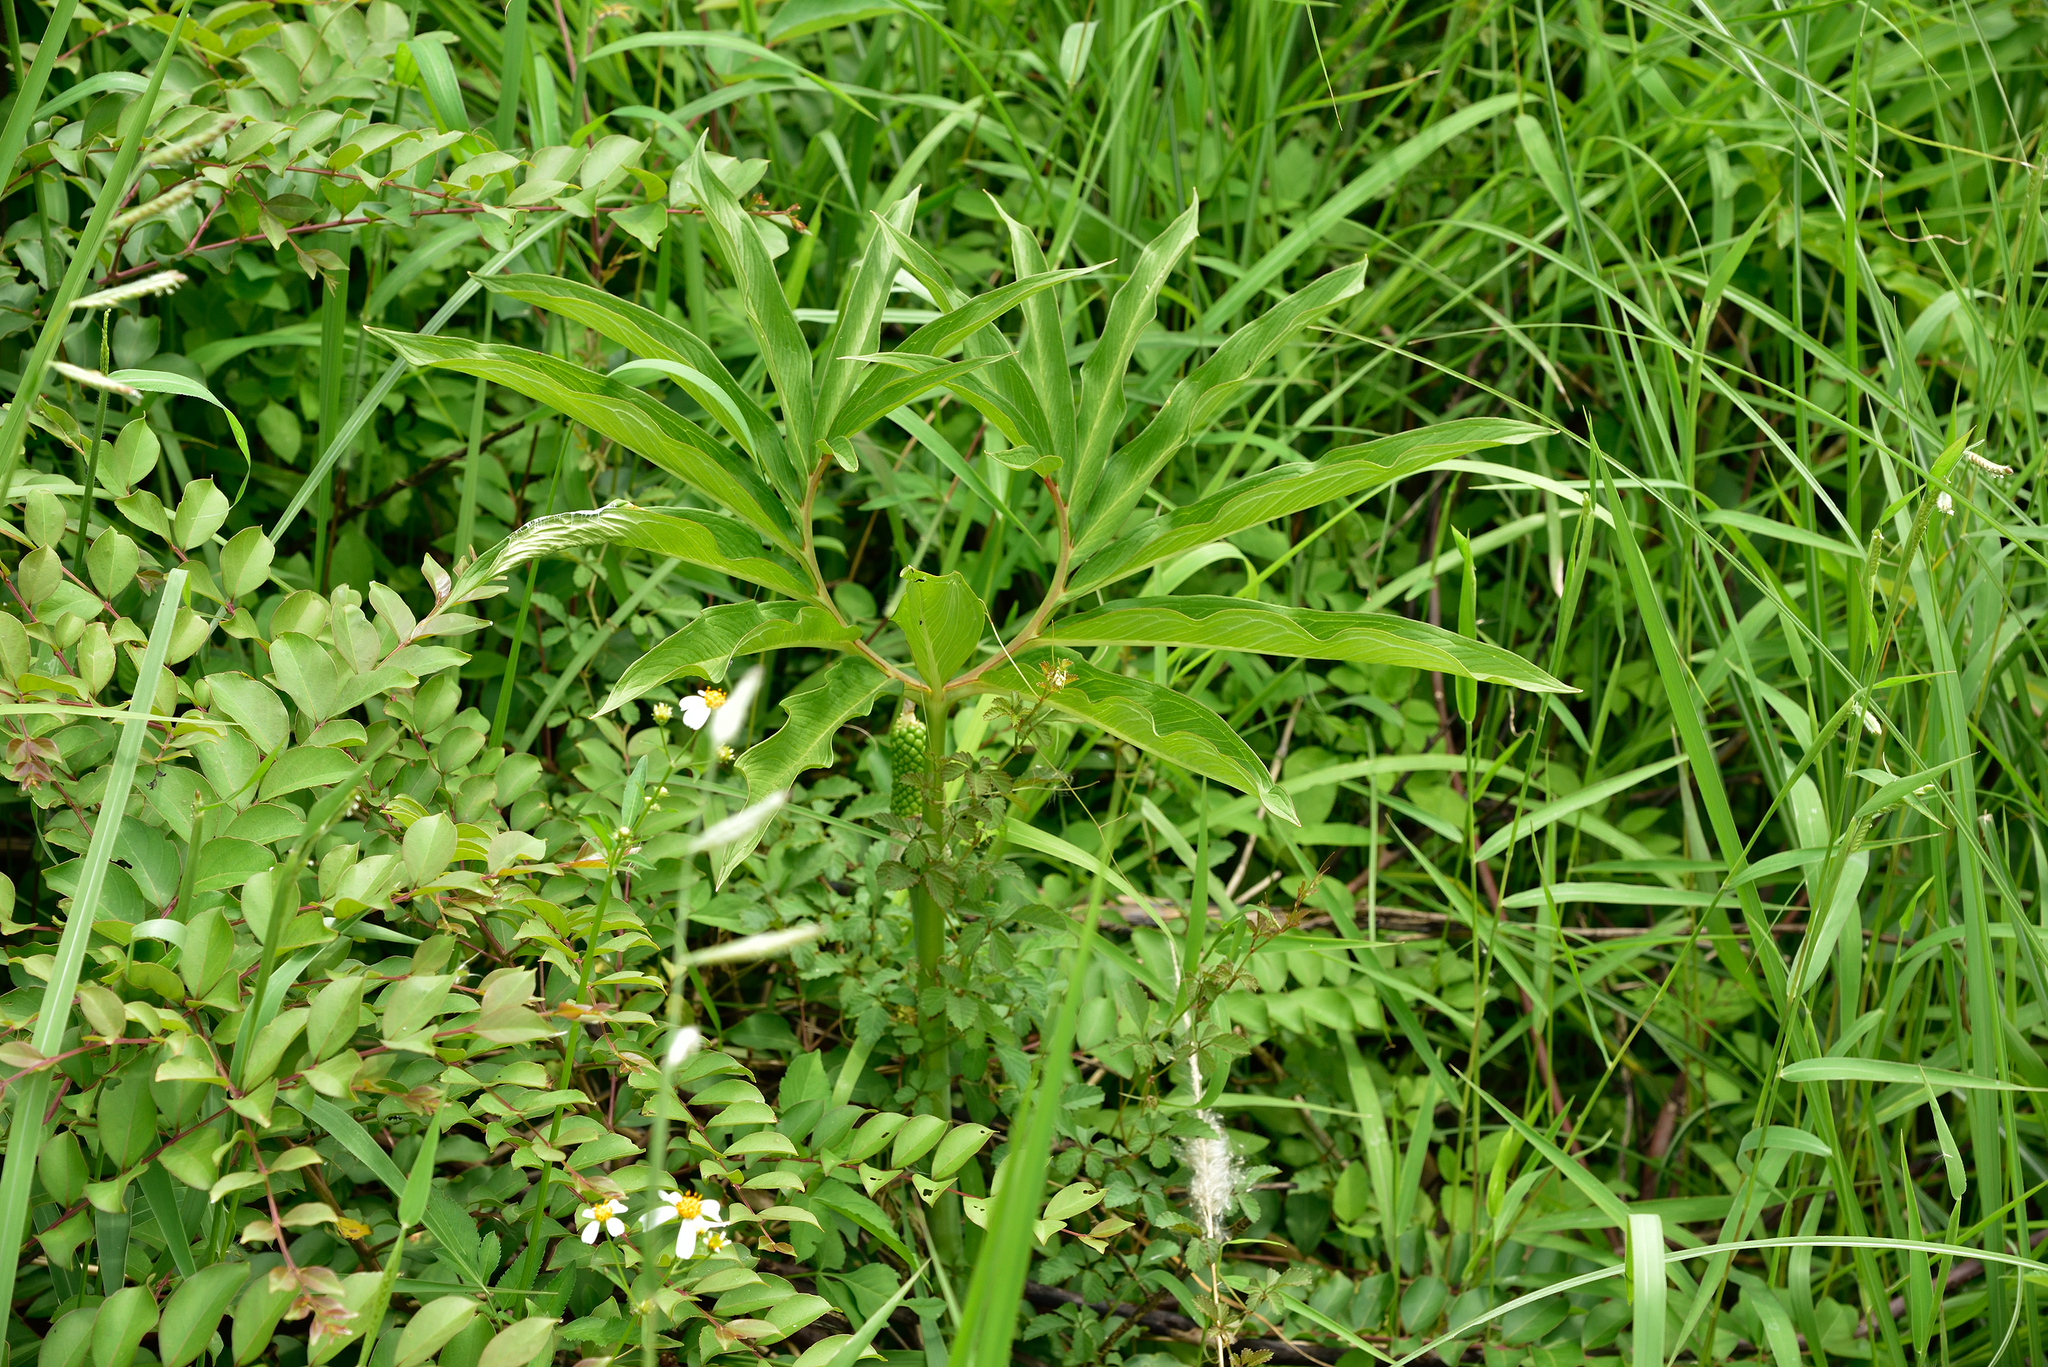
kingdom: Plantae
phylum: Tracheophyta
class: Liliopsida
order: Alismatales
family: Araceae
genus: Arisaema
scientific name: Arisaema heterophyllum
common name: Dancing crane cobra lily
